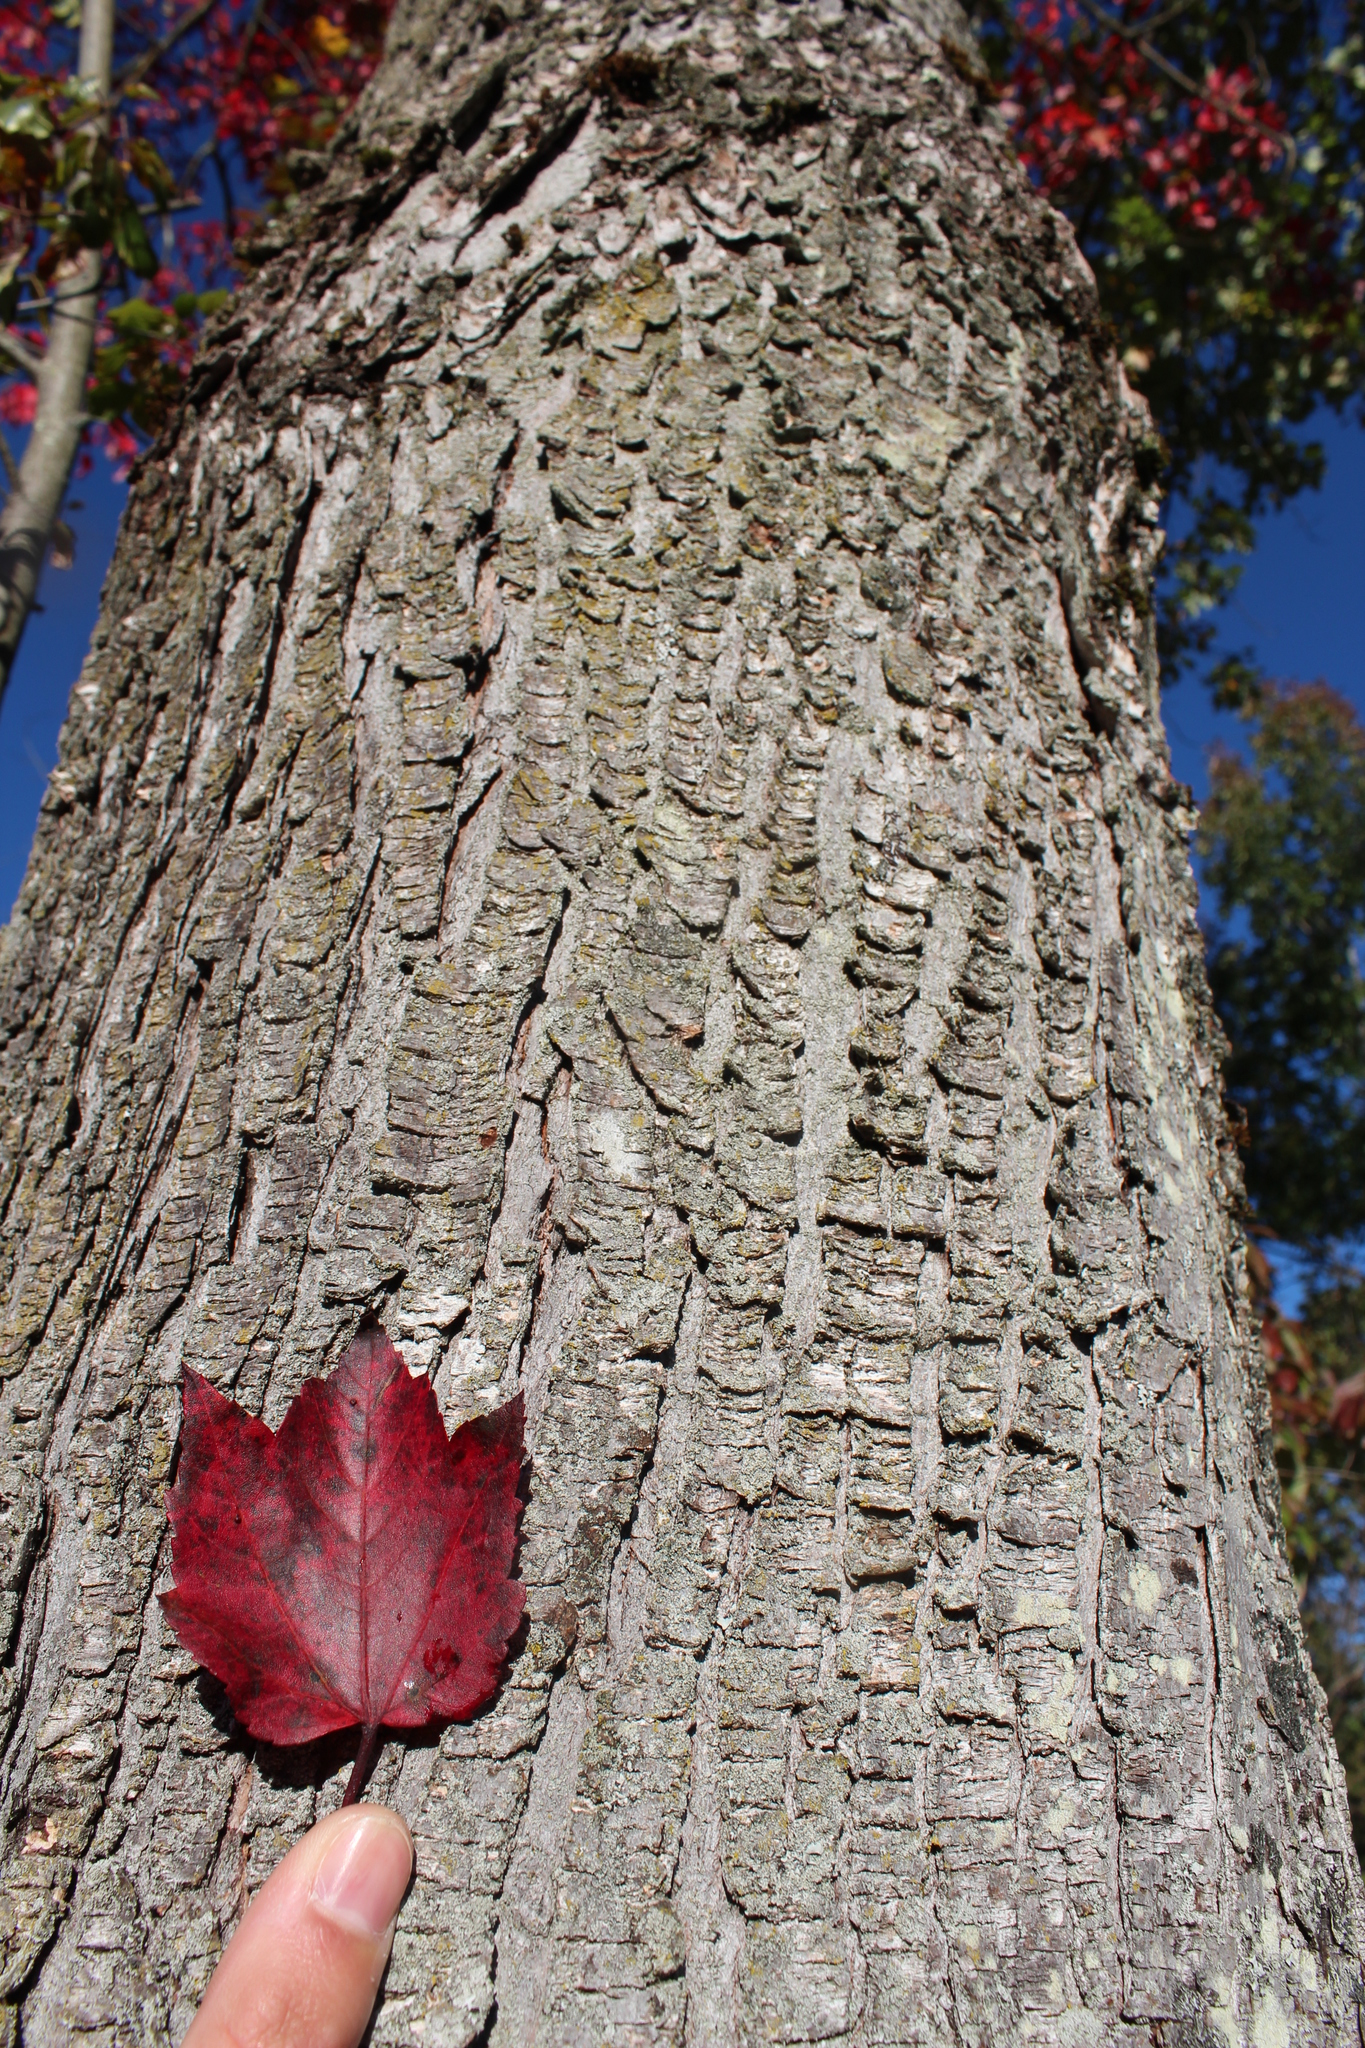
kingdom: Plantae
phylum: Tracheophyta
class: Magnoliopsida
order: Sapindales
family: Sapindaceae
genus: Acer
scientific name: Acer rubrum
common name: Red maple
